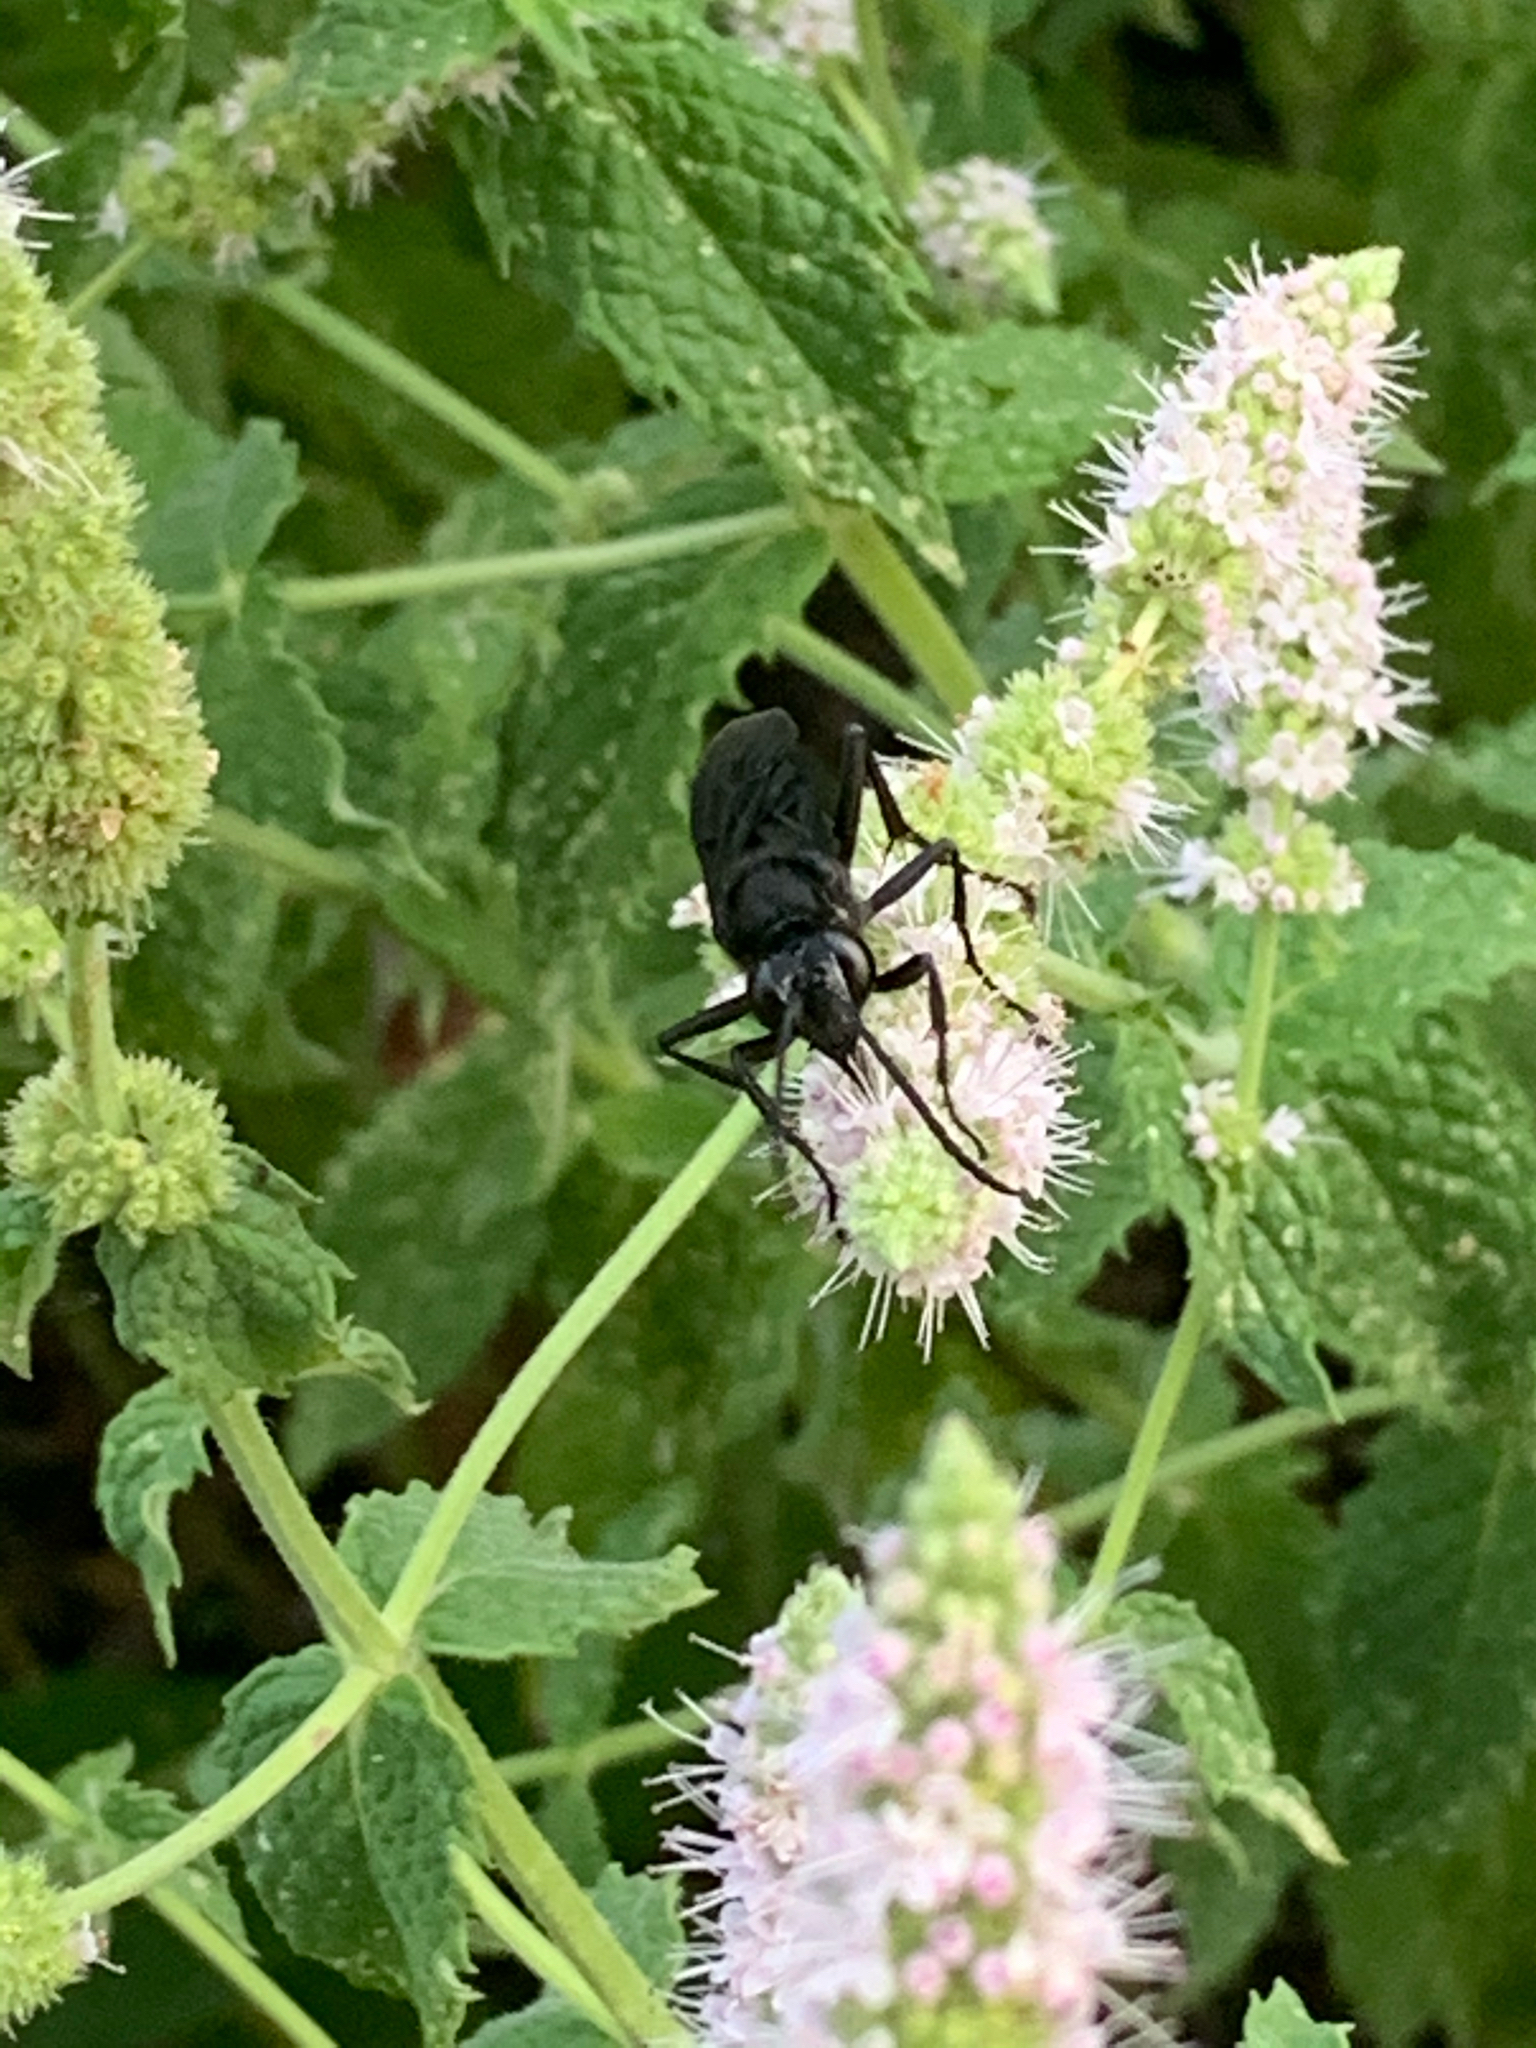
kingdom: Animalia
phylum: Arthropoda
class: Insecta
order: Hymenoptera
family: Sphecidae
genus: Sphex
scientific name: Sphex pensylvanicus
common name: Great black digger wasp
